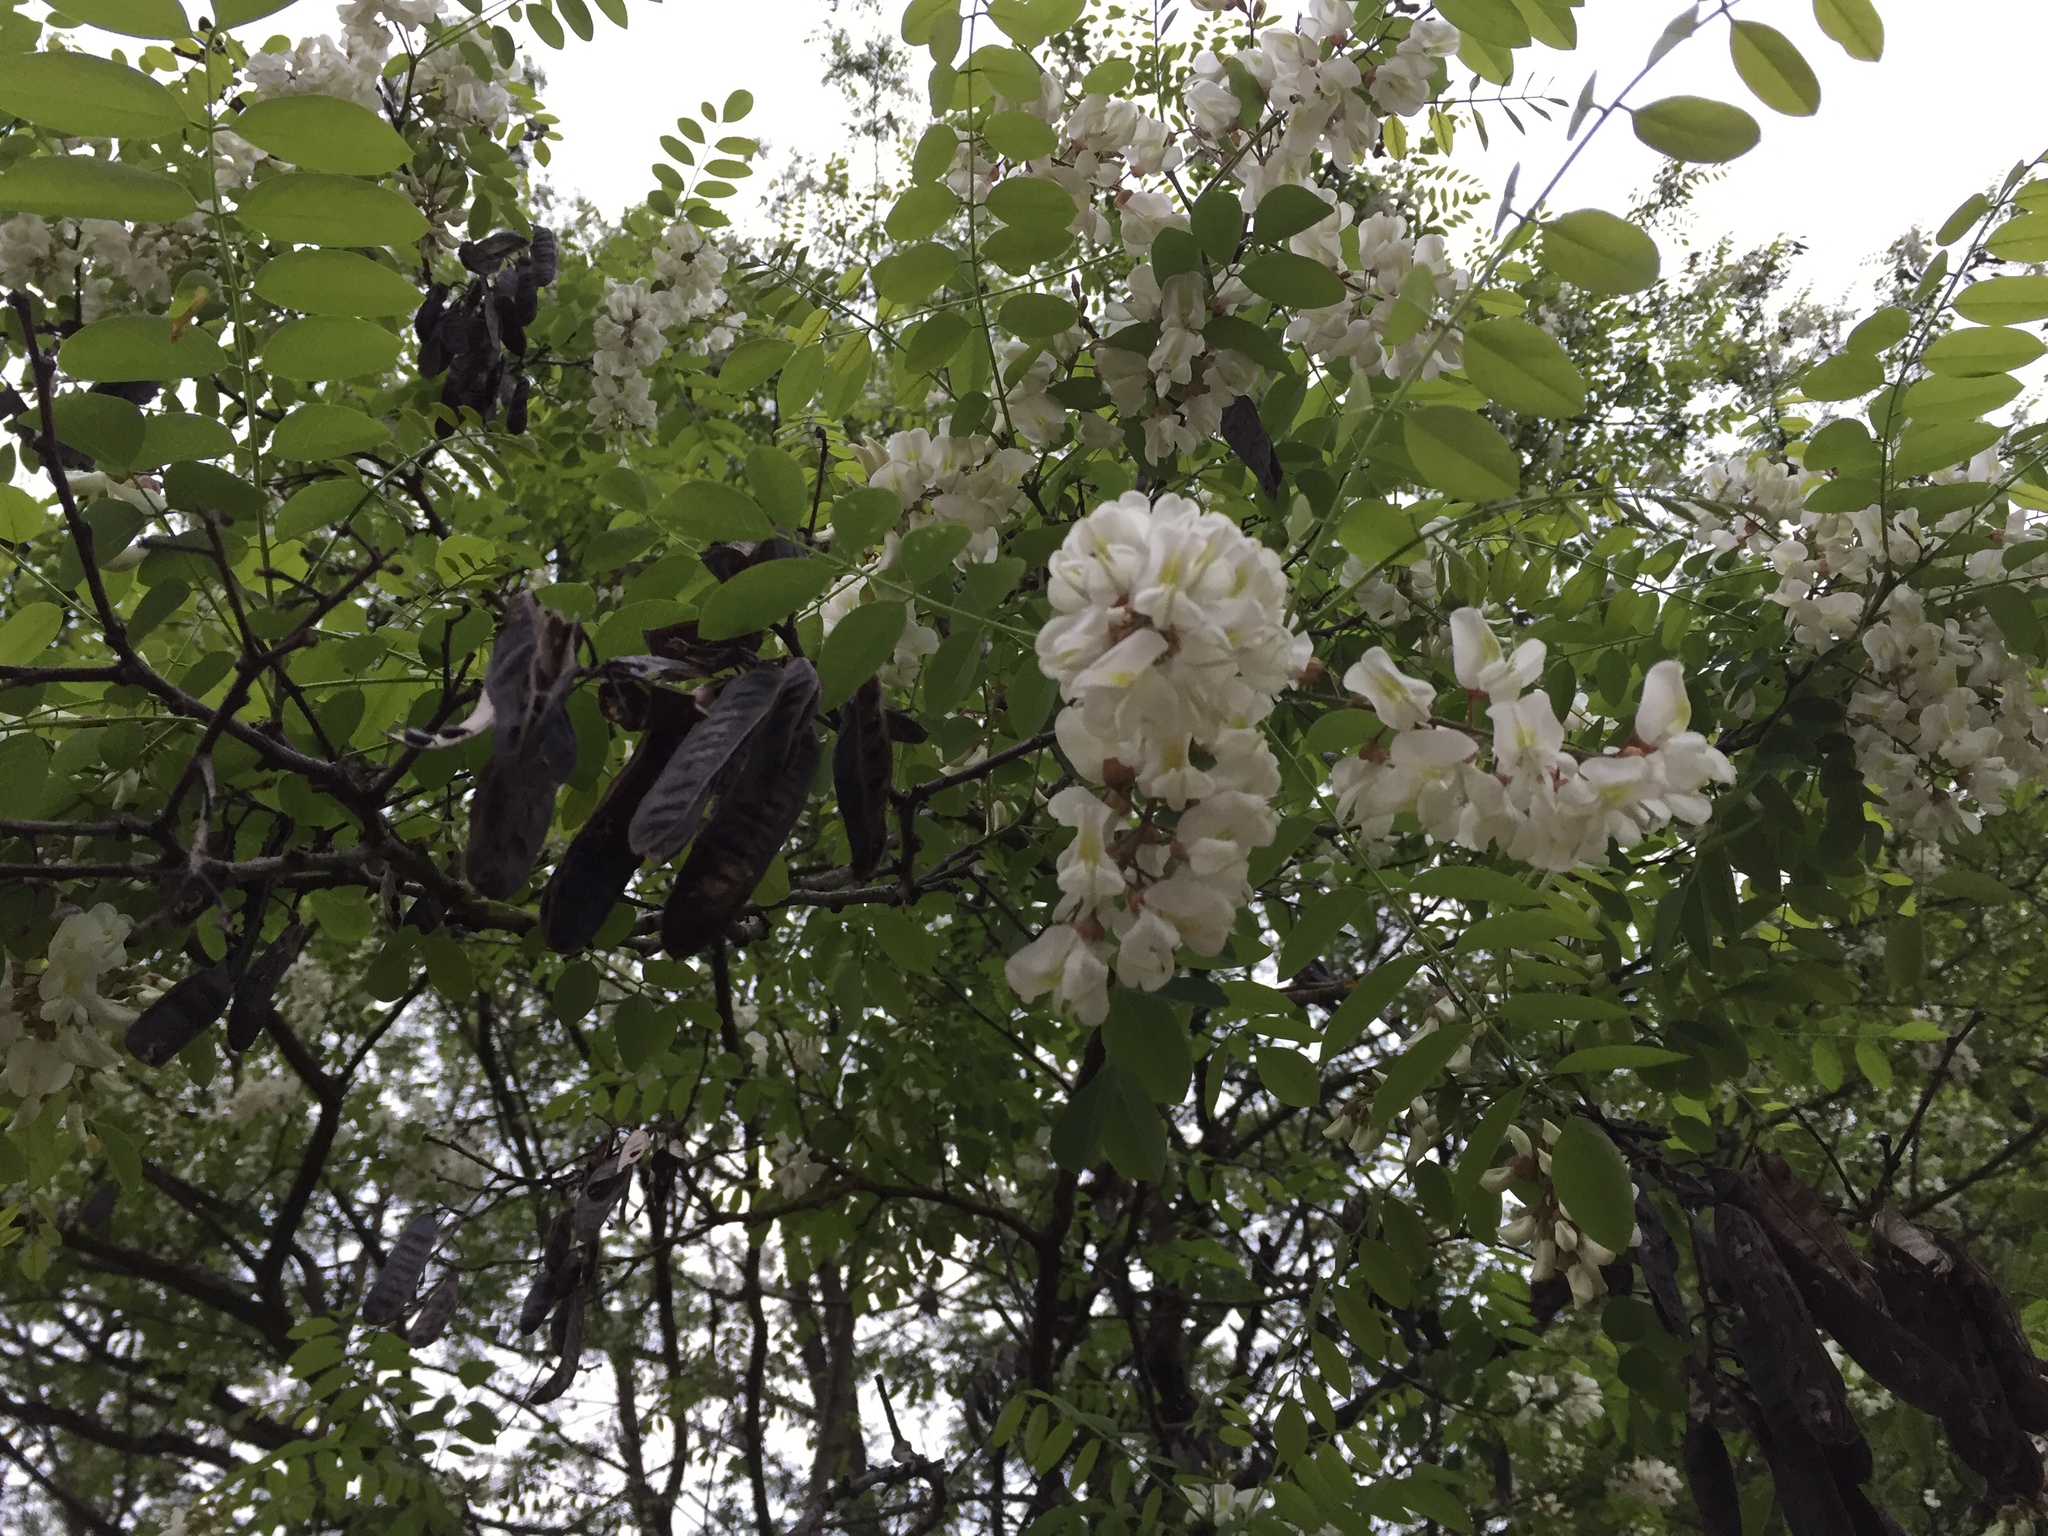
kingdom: Plantae
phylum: Tracheophyta
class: Magnoliopsida
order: Fabales
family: Fabaceae
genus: Robinia
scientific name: Robinia pseudoacacia
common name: Black locust
